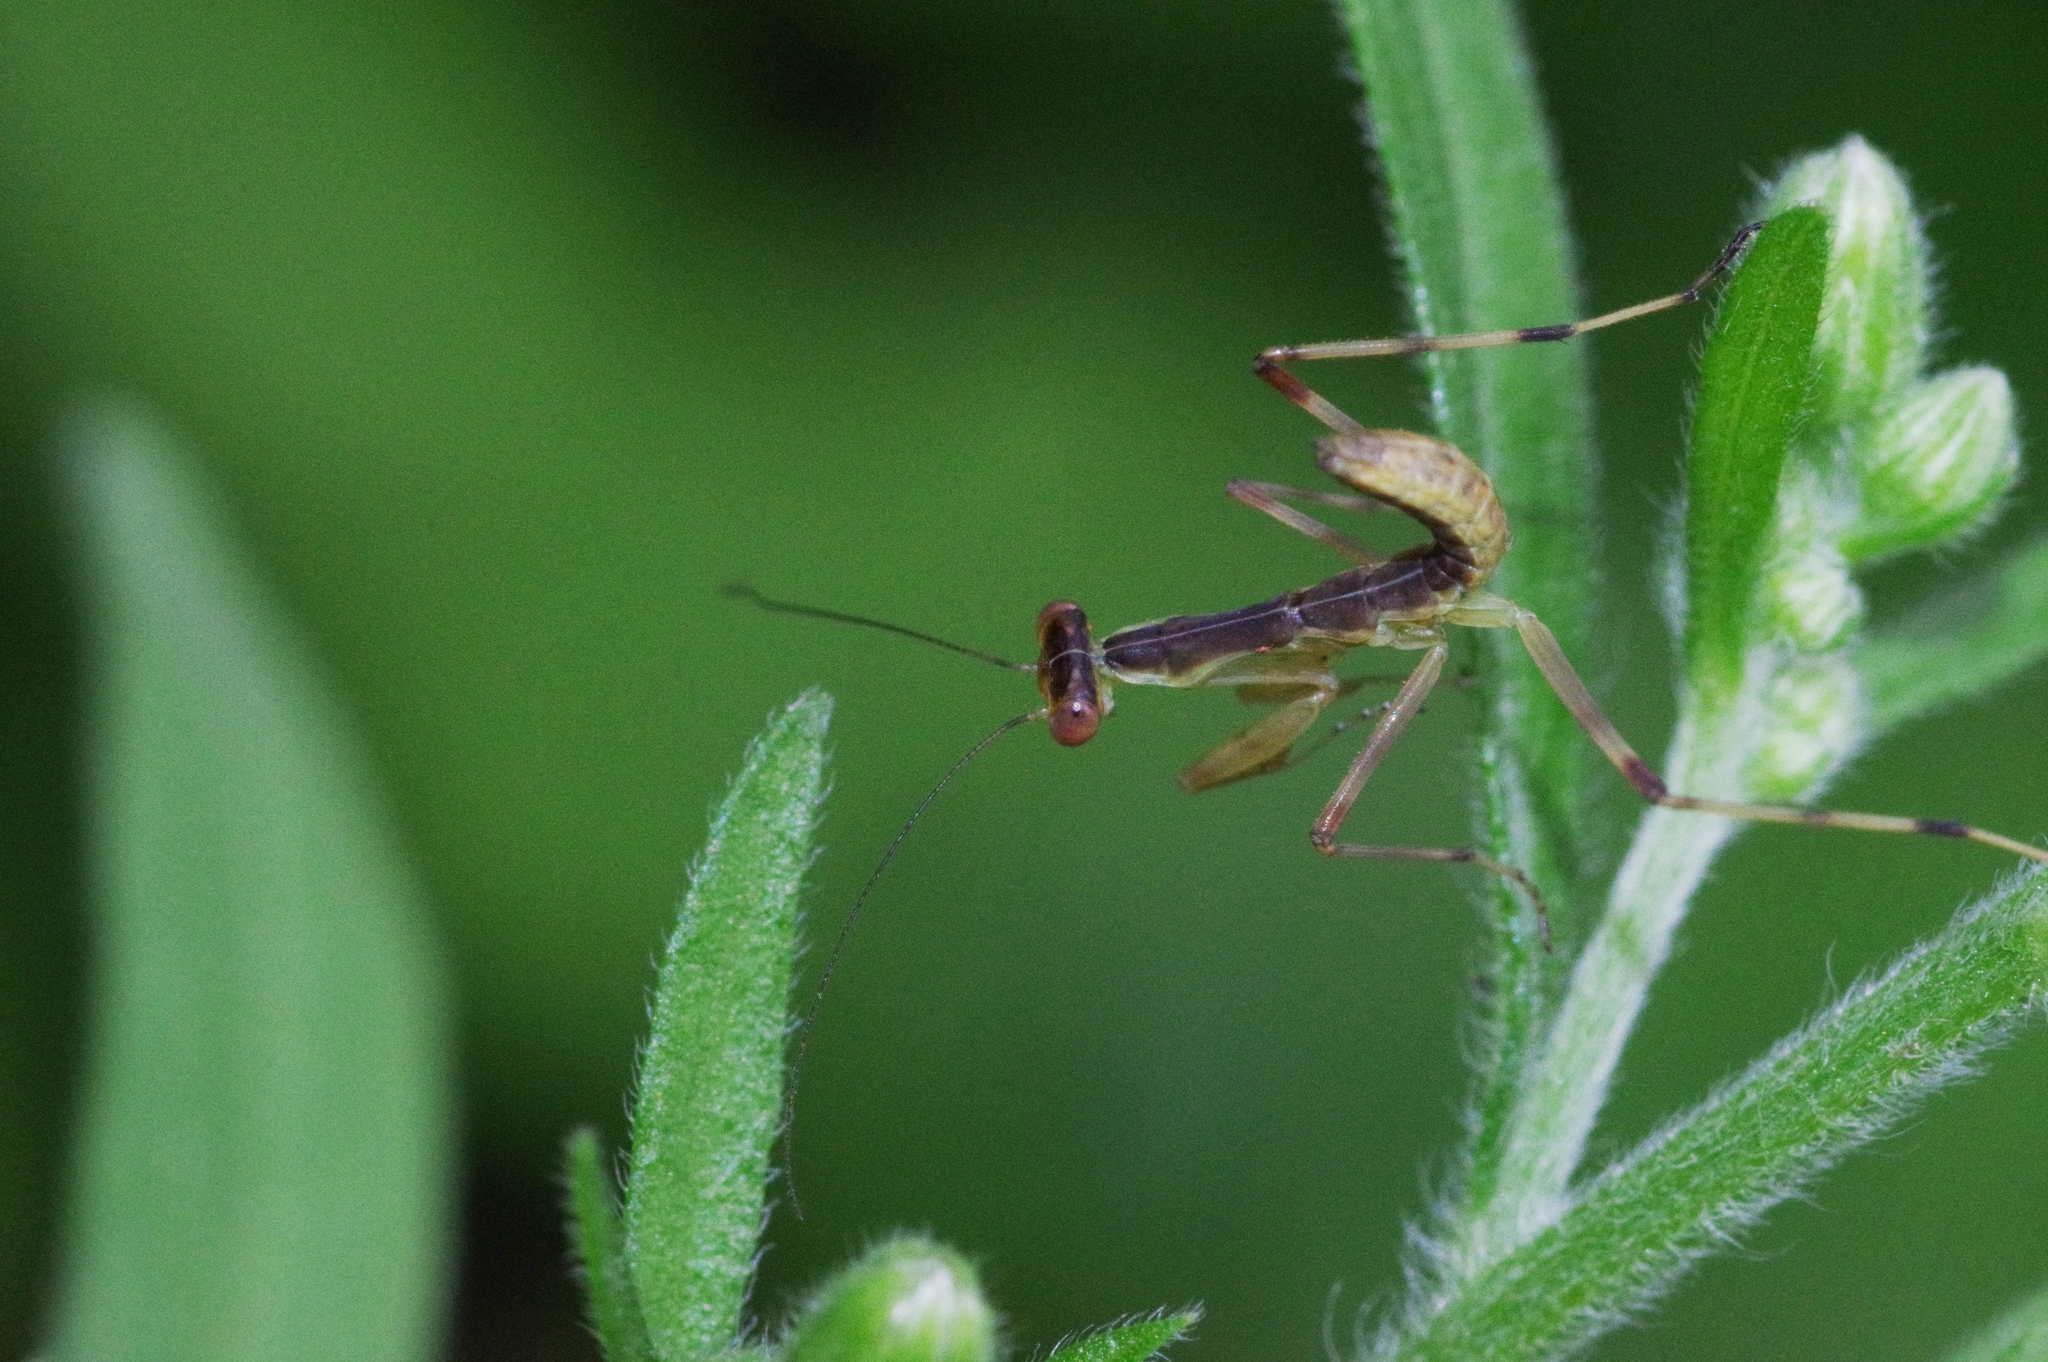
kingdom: Animalia
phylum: Arthropoda
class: Insecta
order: Mantodea
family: Mantidae
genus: Hierodula
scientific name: Hierodula patellifera
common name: Asian mantis
